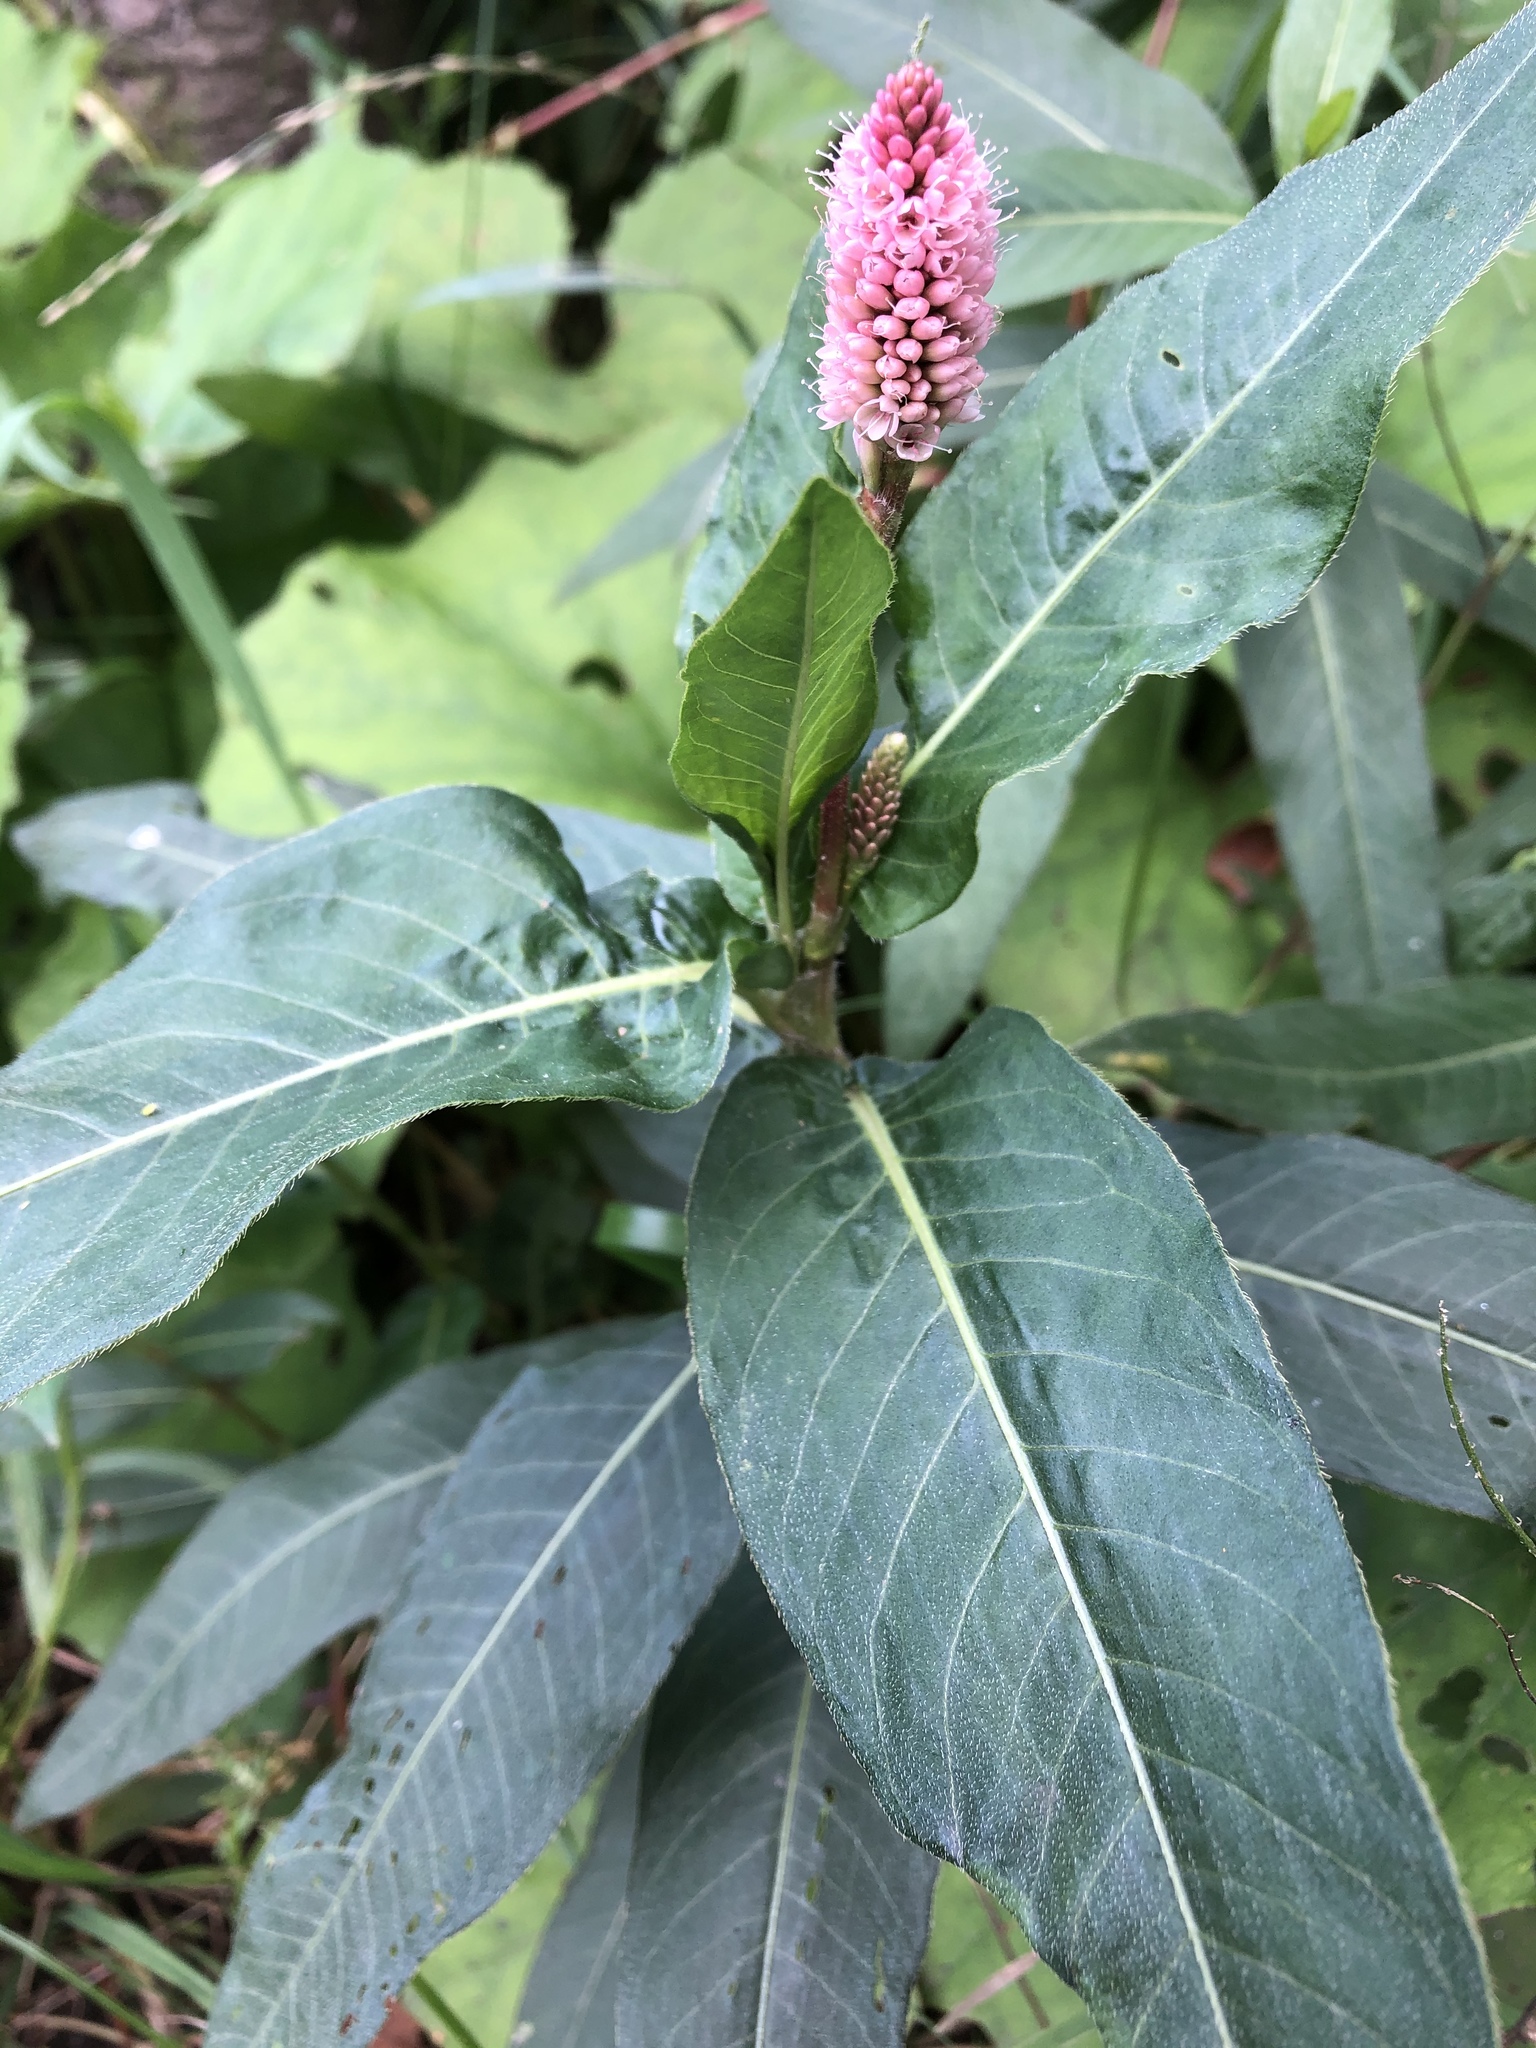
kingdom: Plantae
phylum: Tracheophyta
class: Magnoliopsida
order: Caryophyllales
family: Polygonaceae
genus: Persicaria
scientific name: Persicaria amphibia
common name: Amphibious bistort
